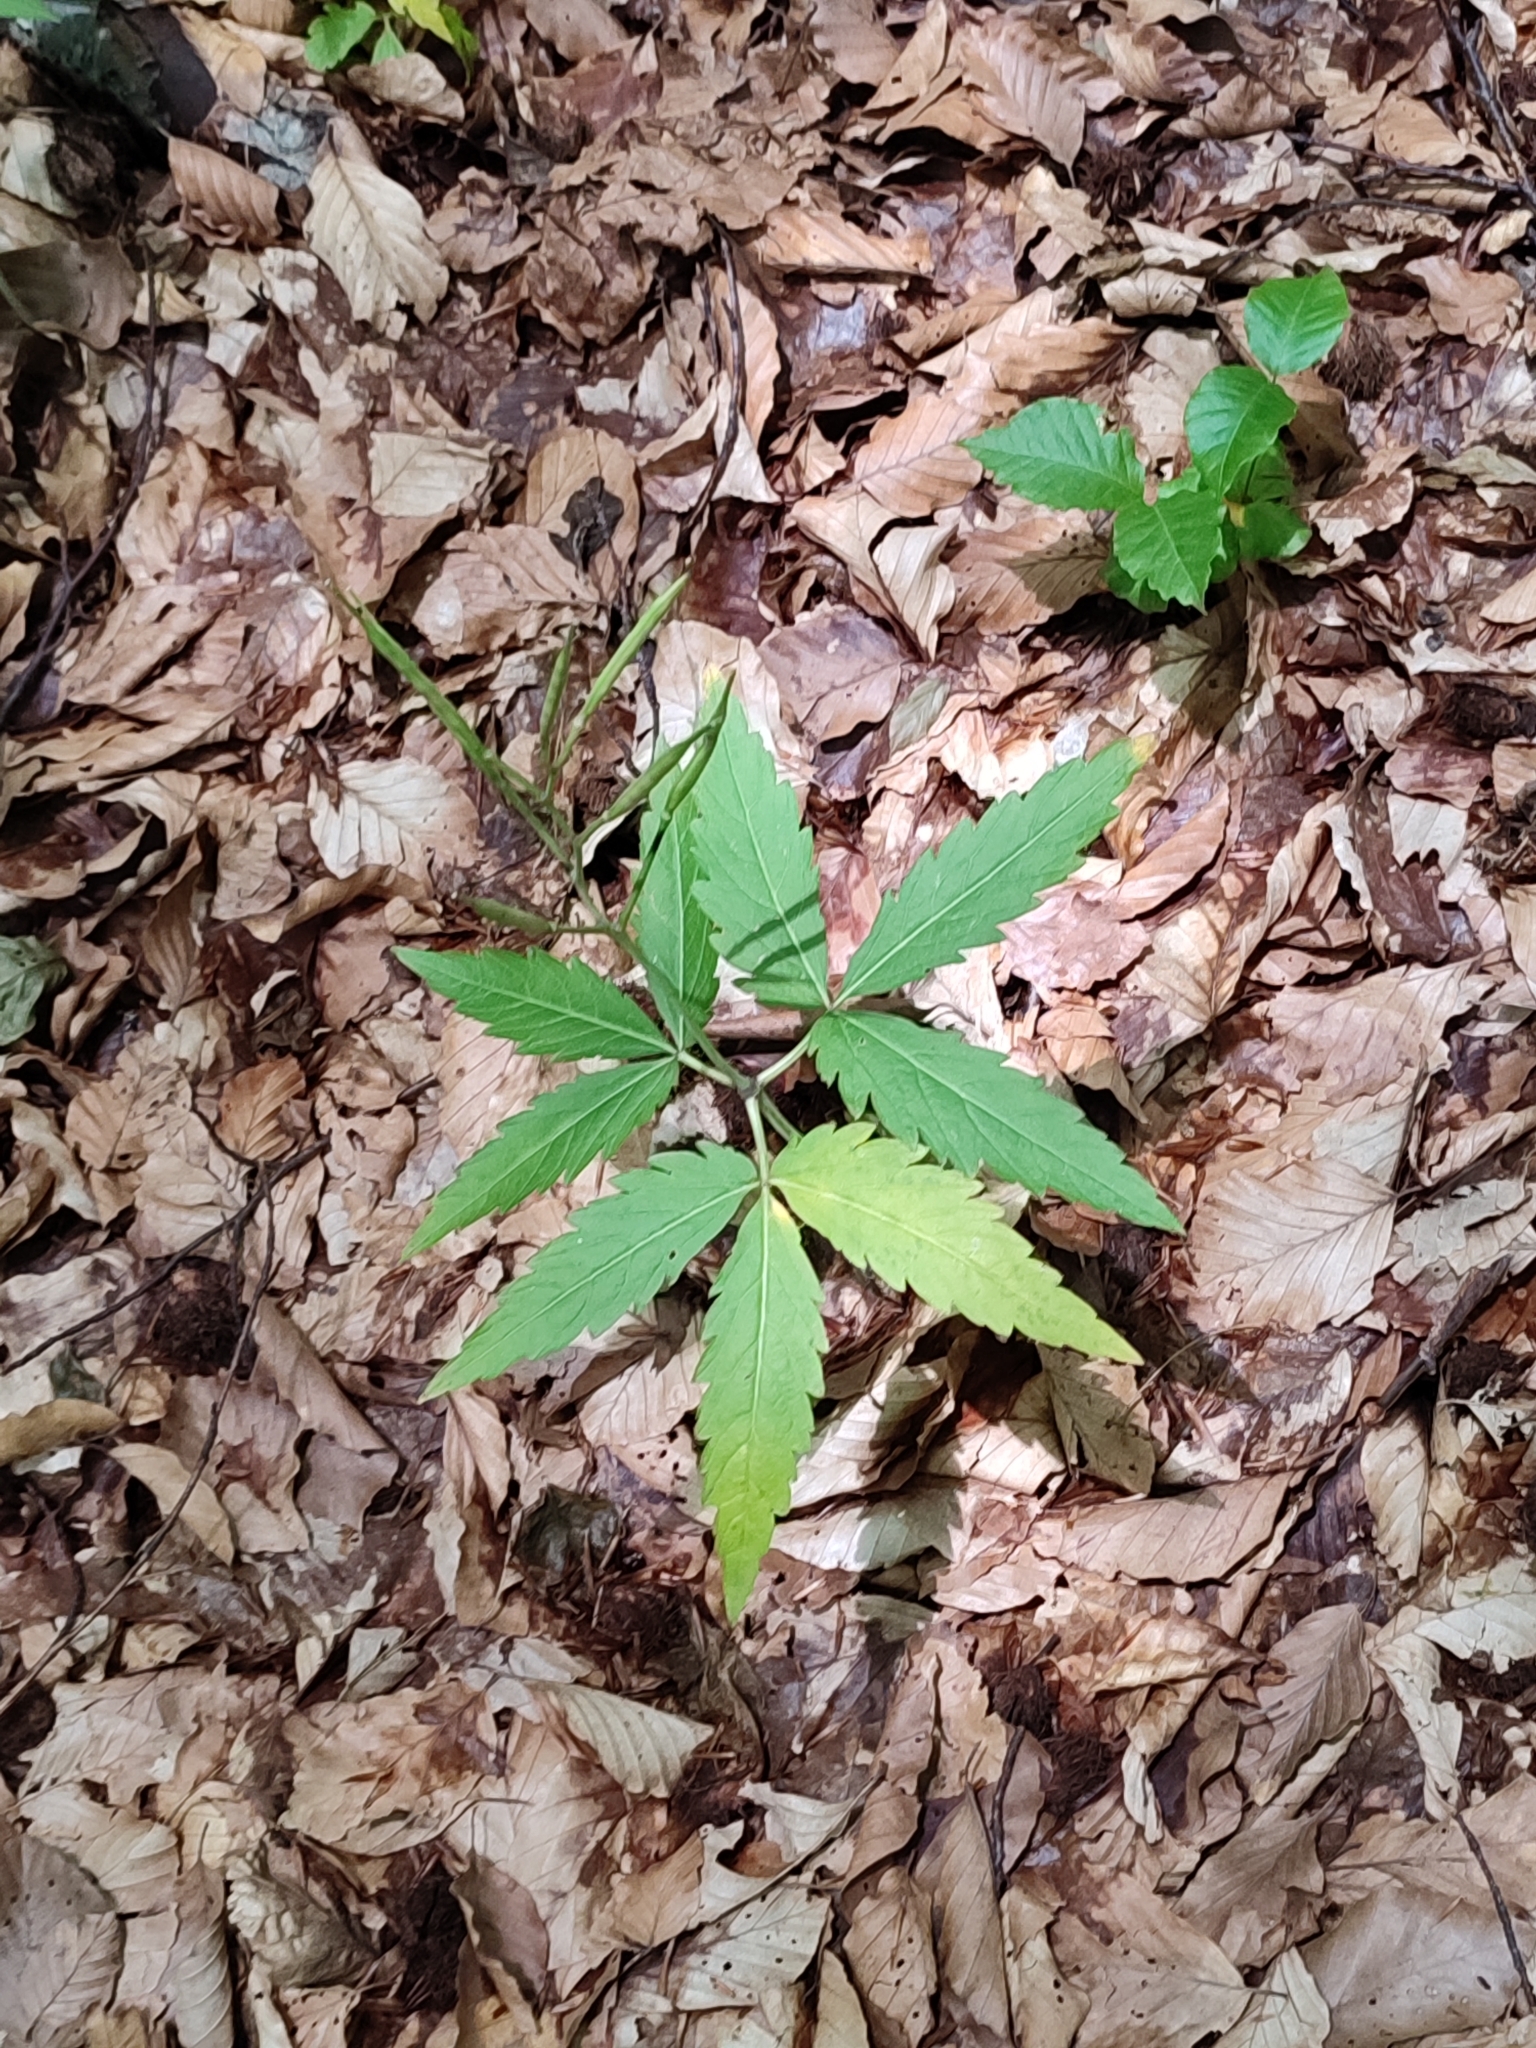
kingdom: Plantae
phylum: Tracheophyta
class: Magnoliopsida
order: Brassicales
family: Brassicaceae
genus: Cardamine
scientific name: Cardamine glanduligera
